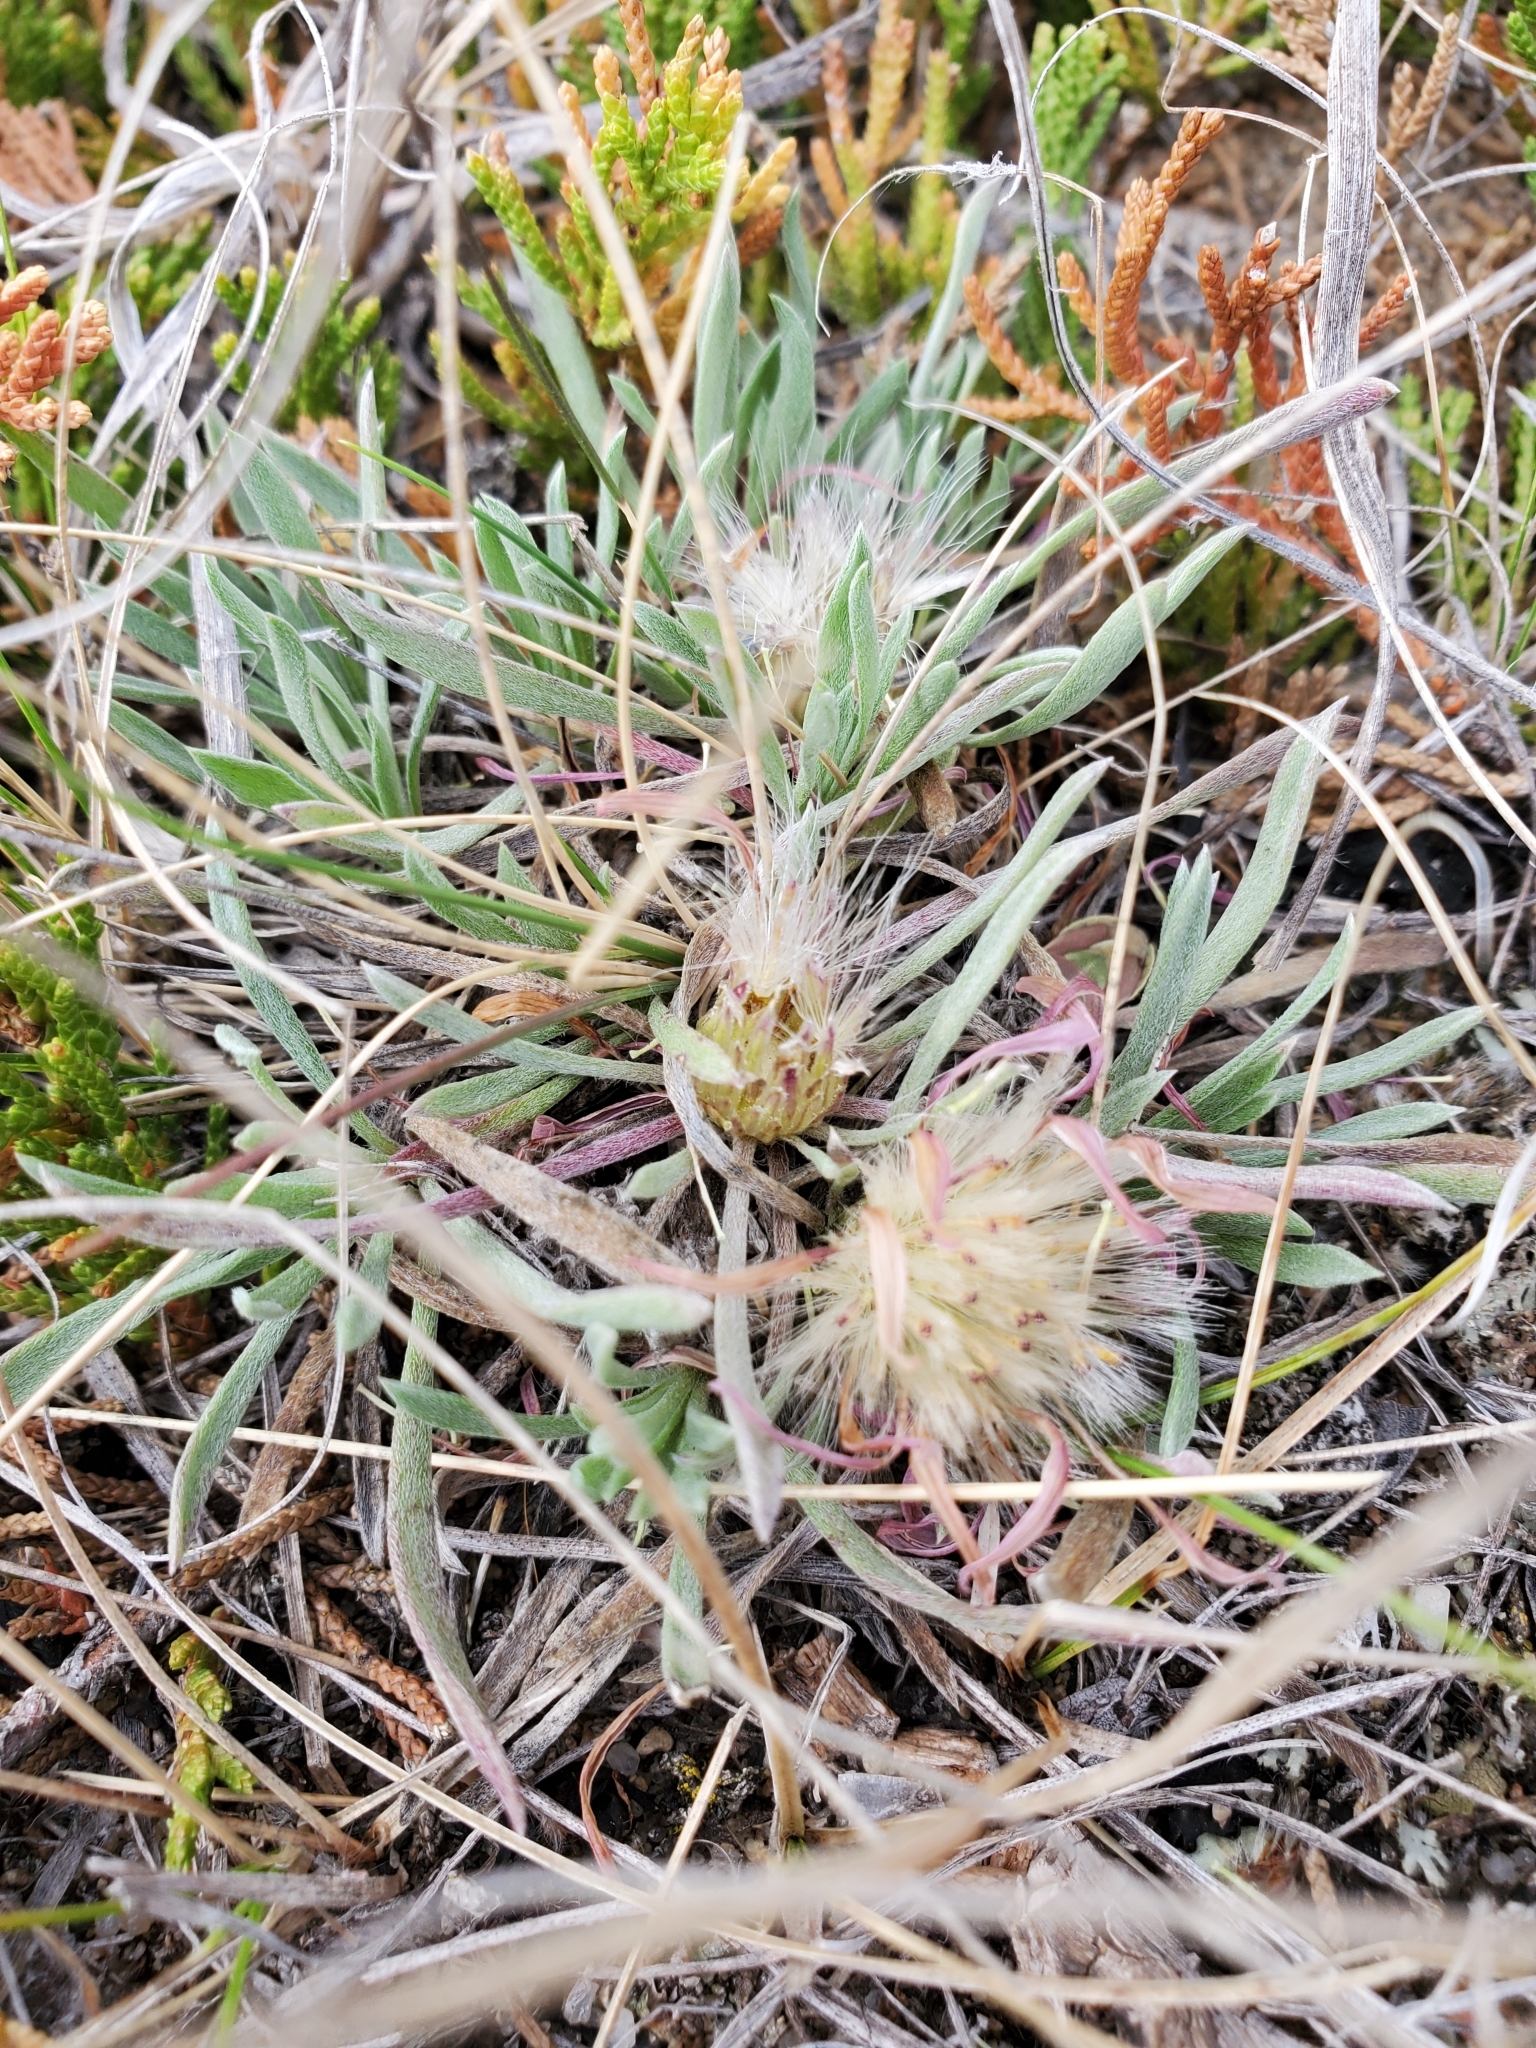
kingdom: Plantae
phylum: Tracheophyta
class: Magnoliopsida
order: Asterales
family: Asteraceae
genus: Townsendia
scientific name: Townsendia exscapa
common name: Dwarf townsendia
